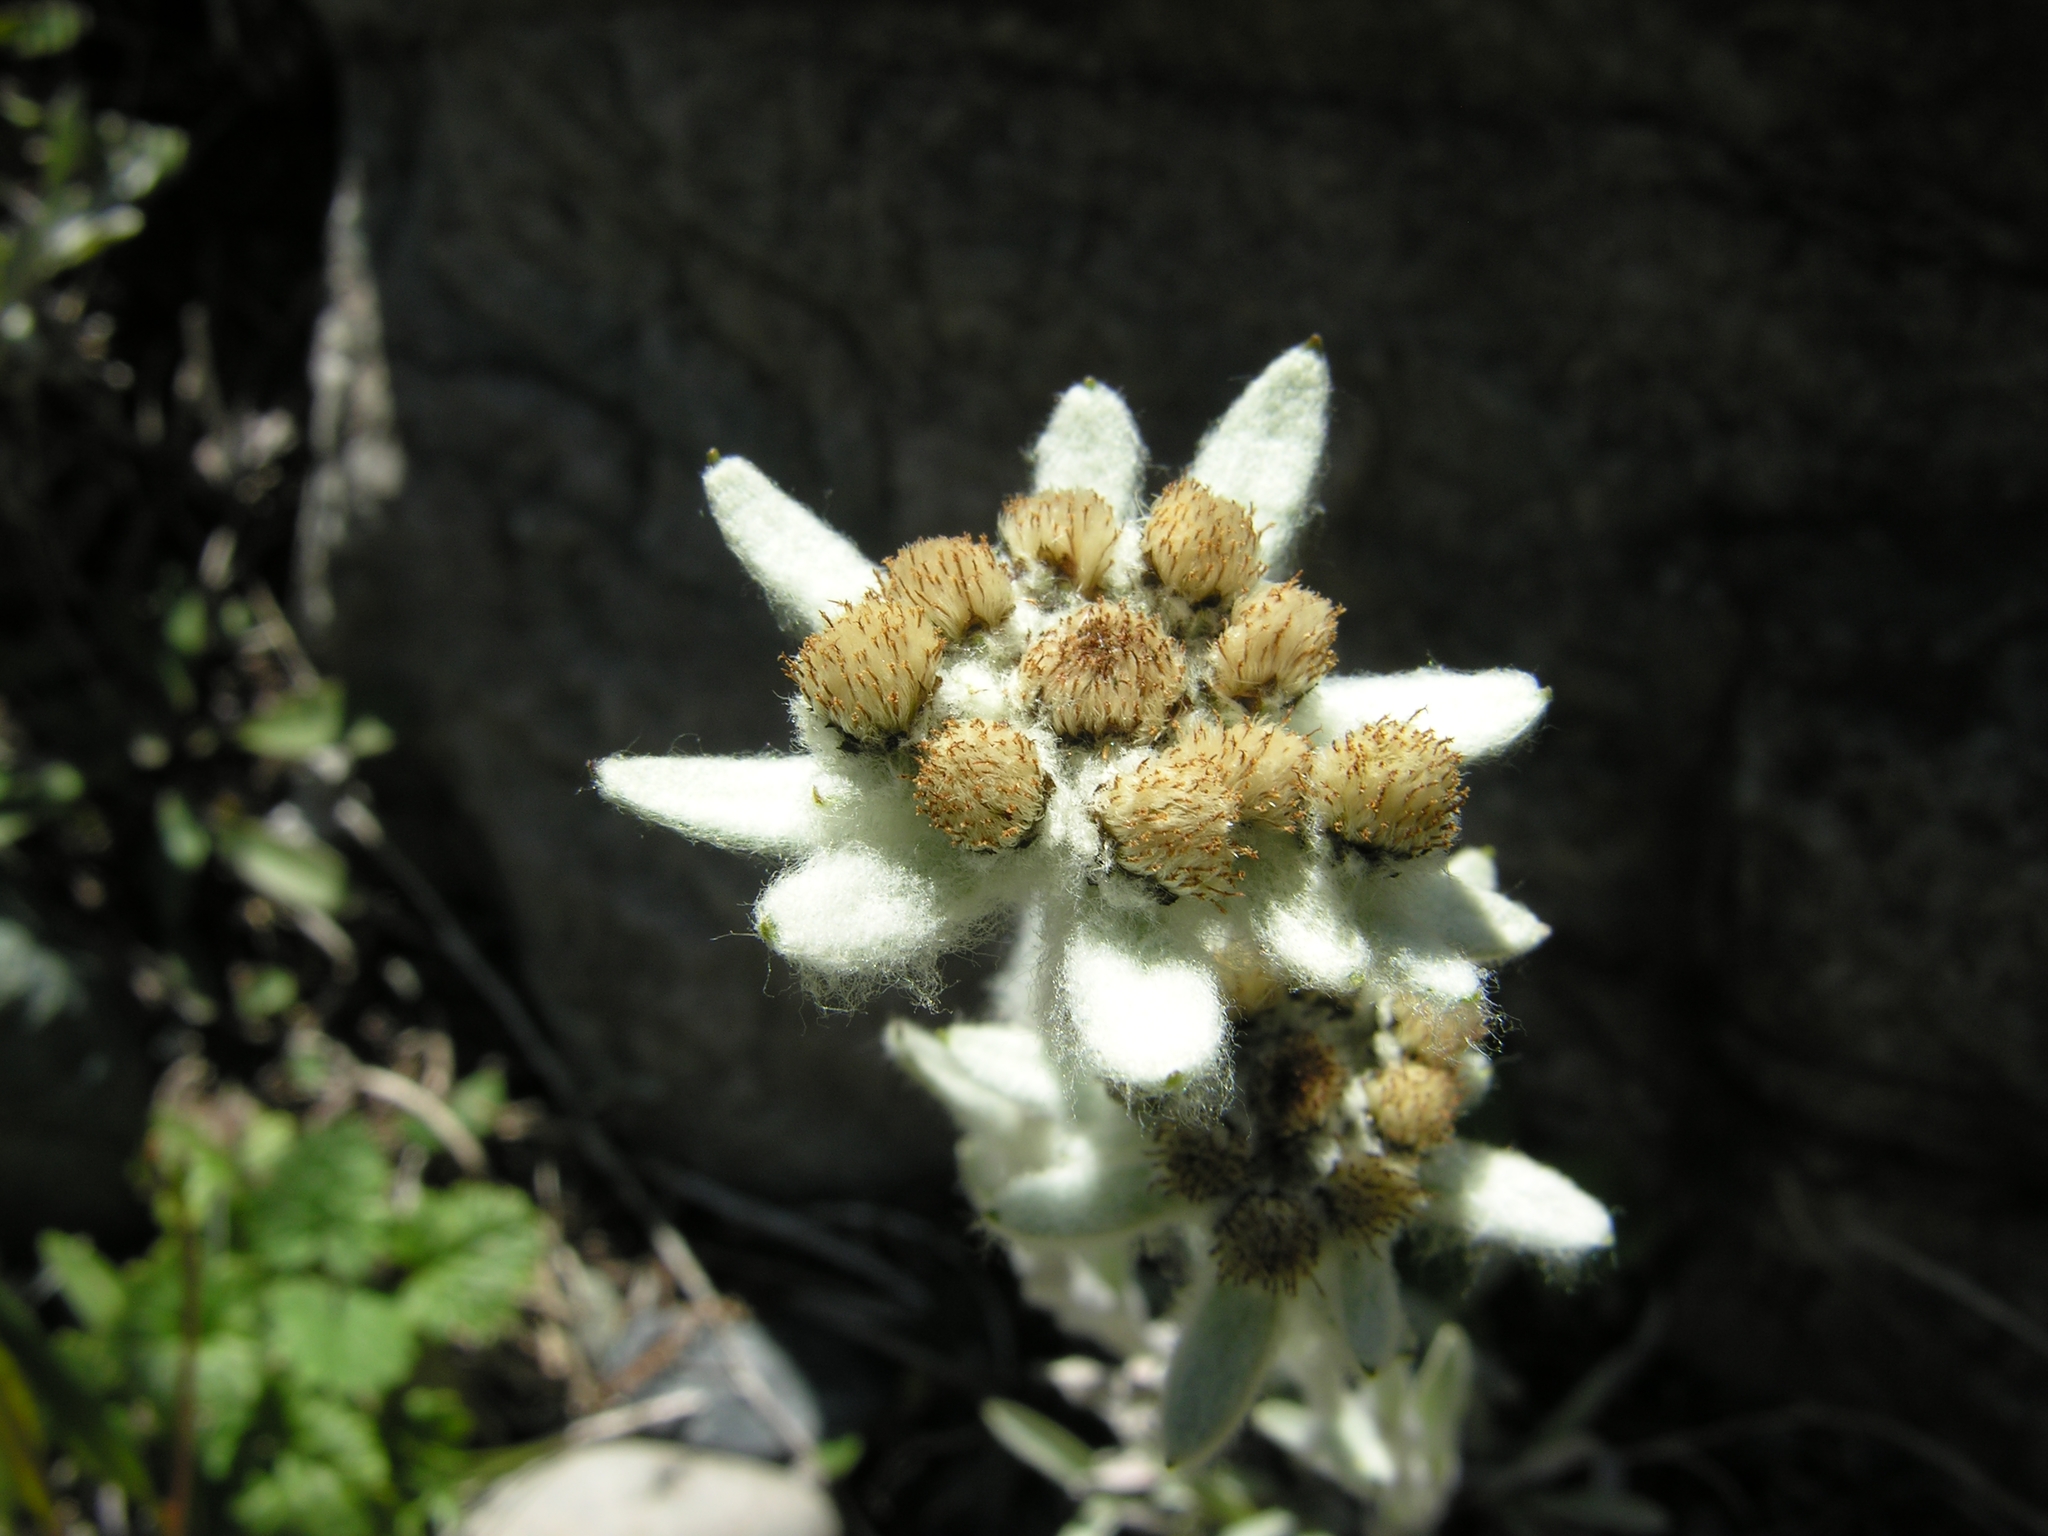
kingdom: Plantae
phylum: Tracheophyta
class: Magnoliopsida
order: Asterales
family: Asteraceae
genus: Leontopodium
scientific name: Leontopodium leontopodinum
